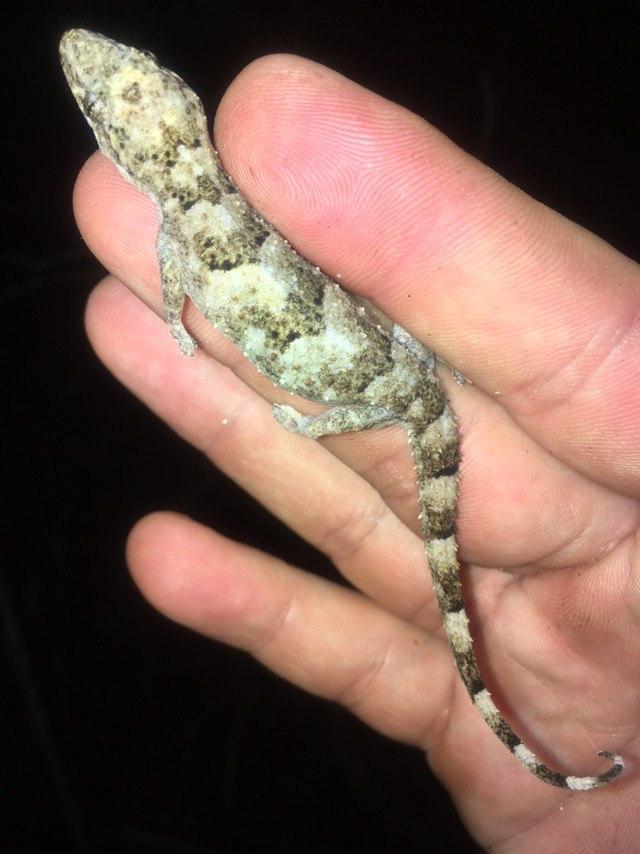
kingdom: Animalia
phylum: Chordata
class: Squamata
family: Gekkonidae
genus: Hemidactylus
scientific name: Hemidactylus mercatorius
